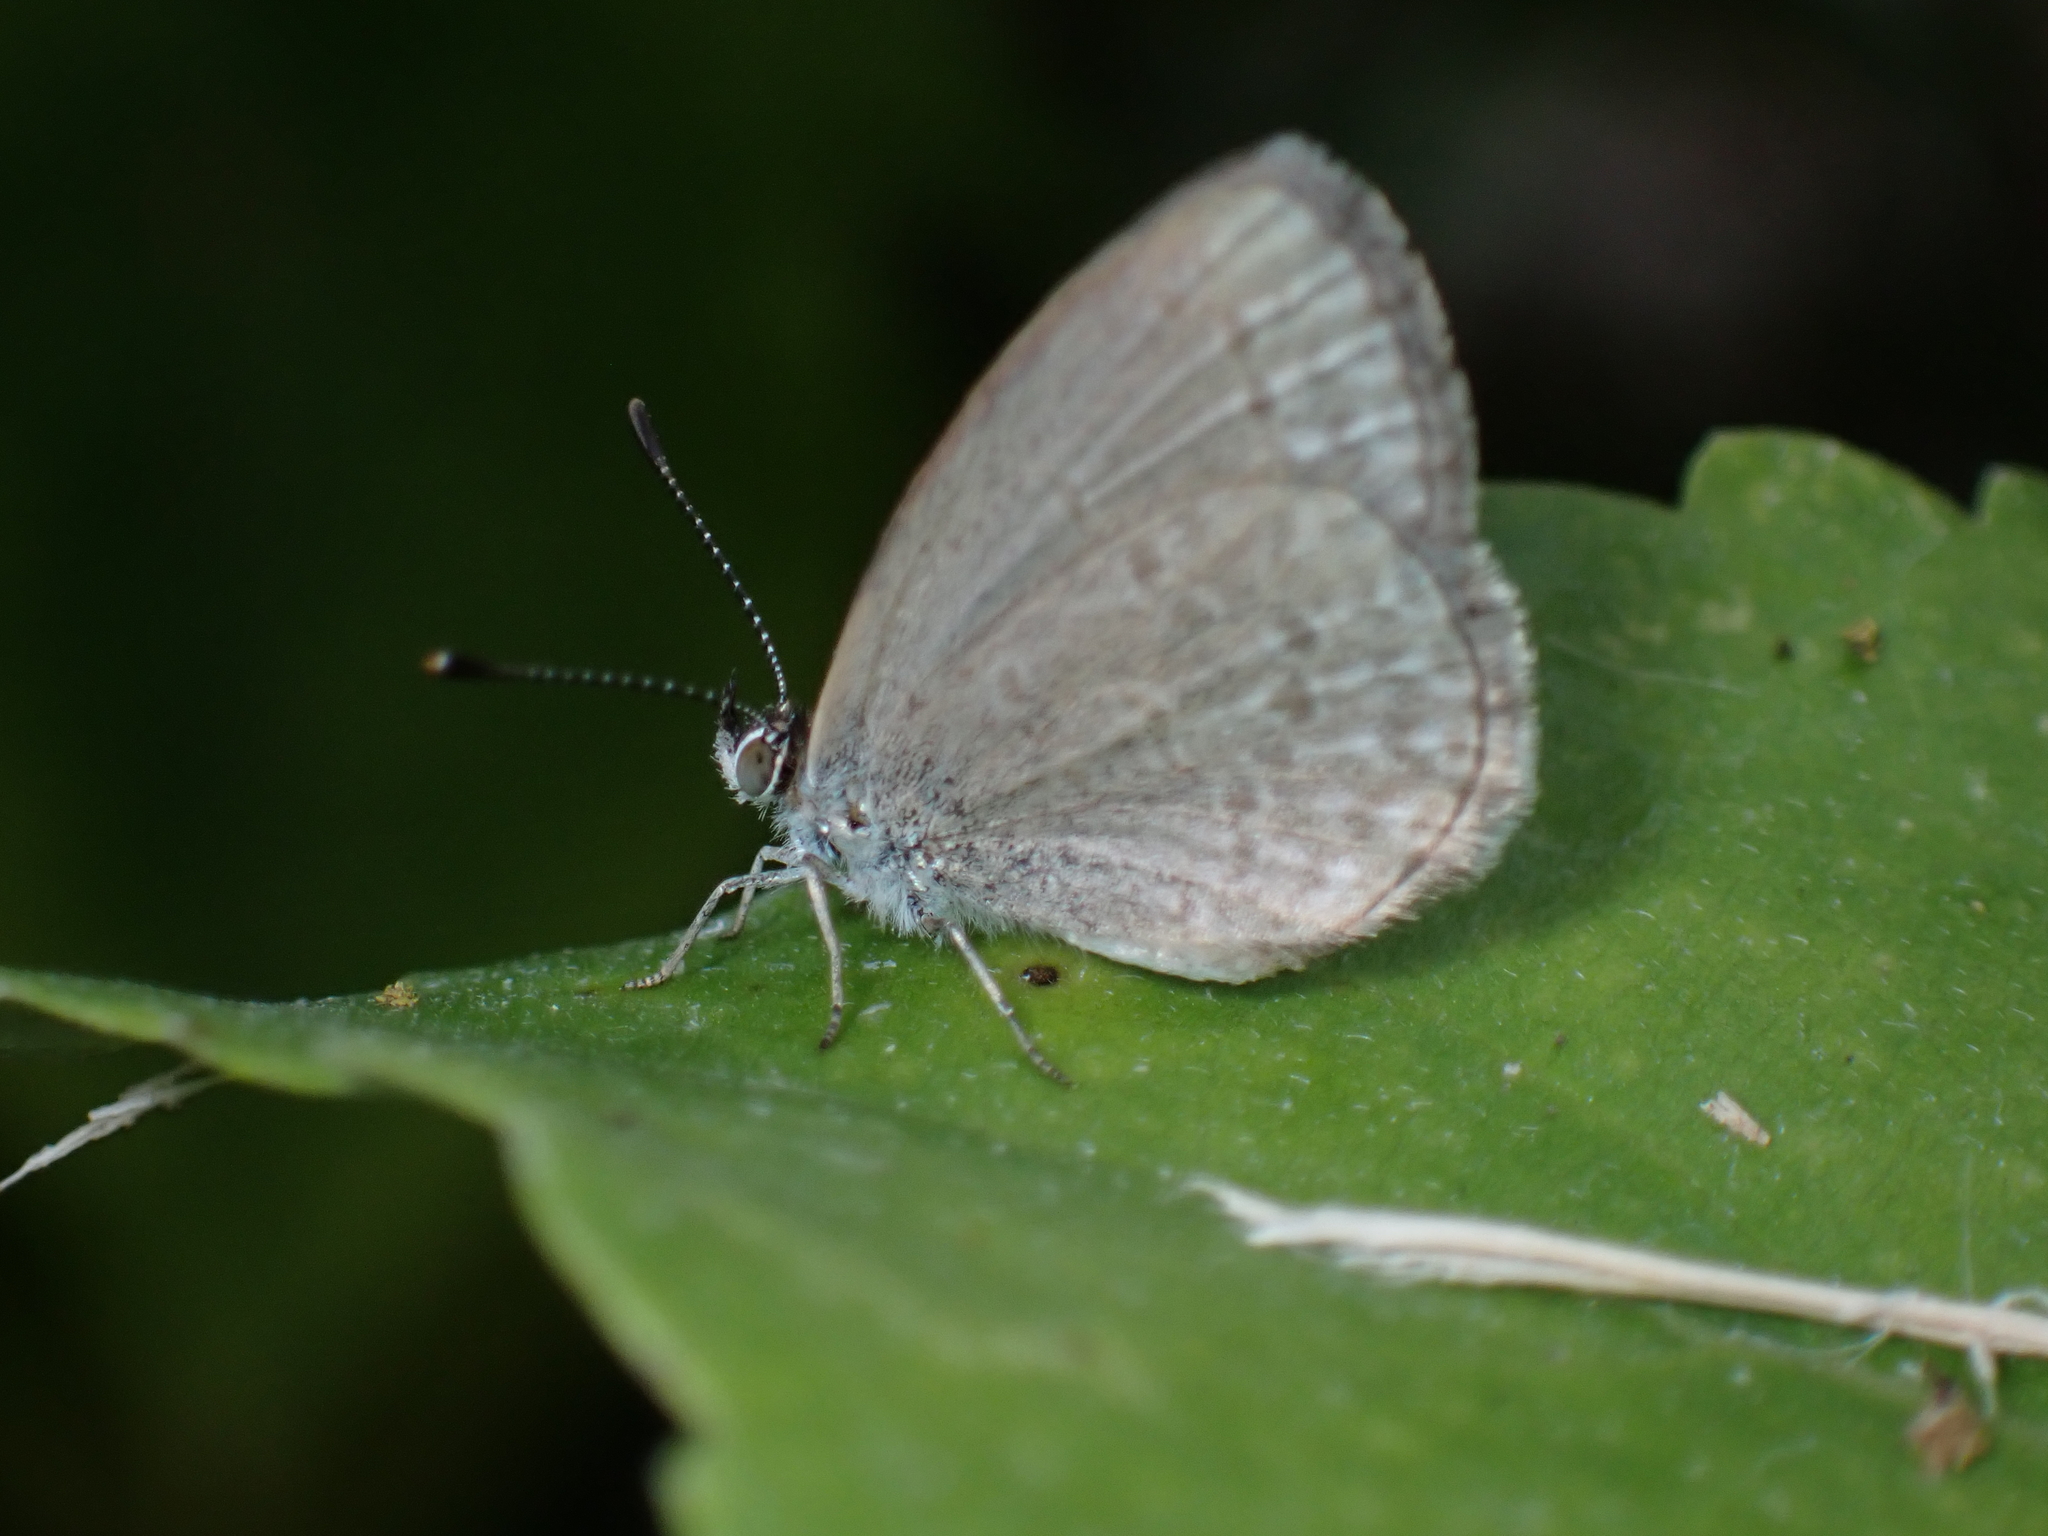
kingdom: Animalia
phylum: Arthropoda
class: Insecta
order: Lepidoptera
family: Lycaenidae
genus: Zizina
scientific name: Zizina otis
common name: Lesser grass blue
